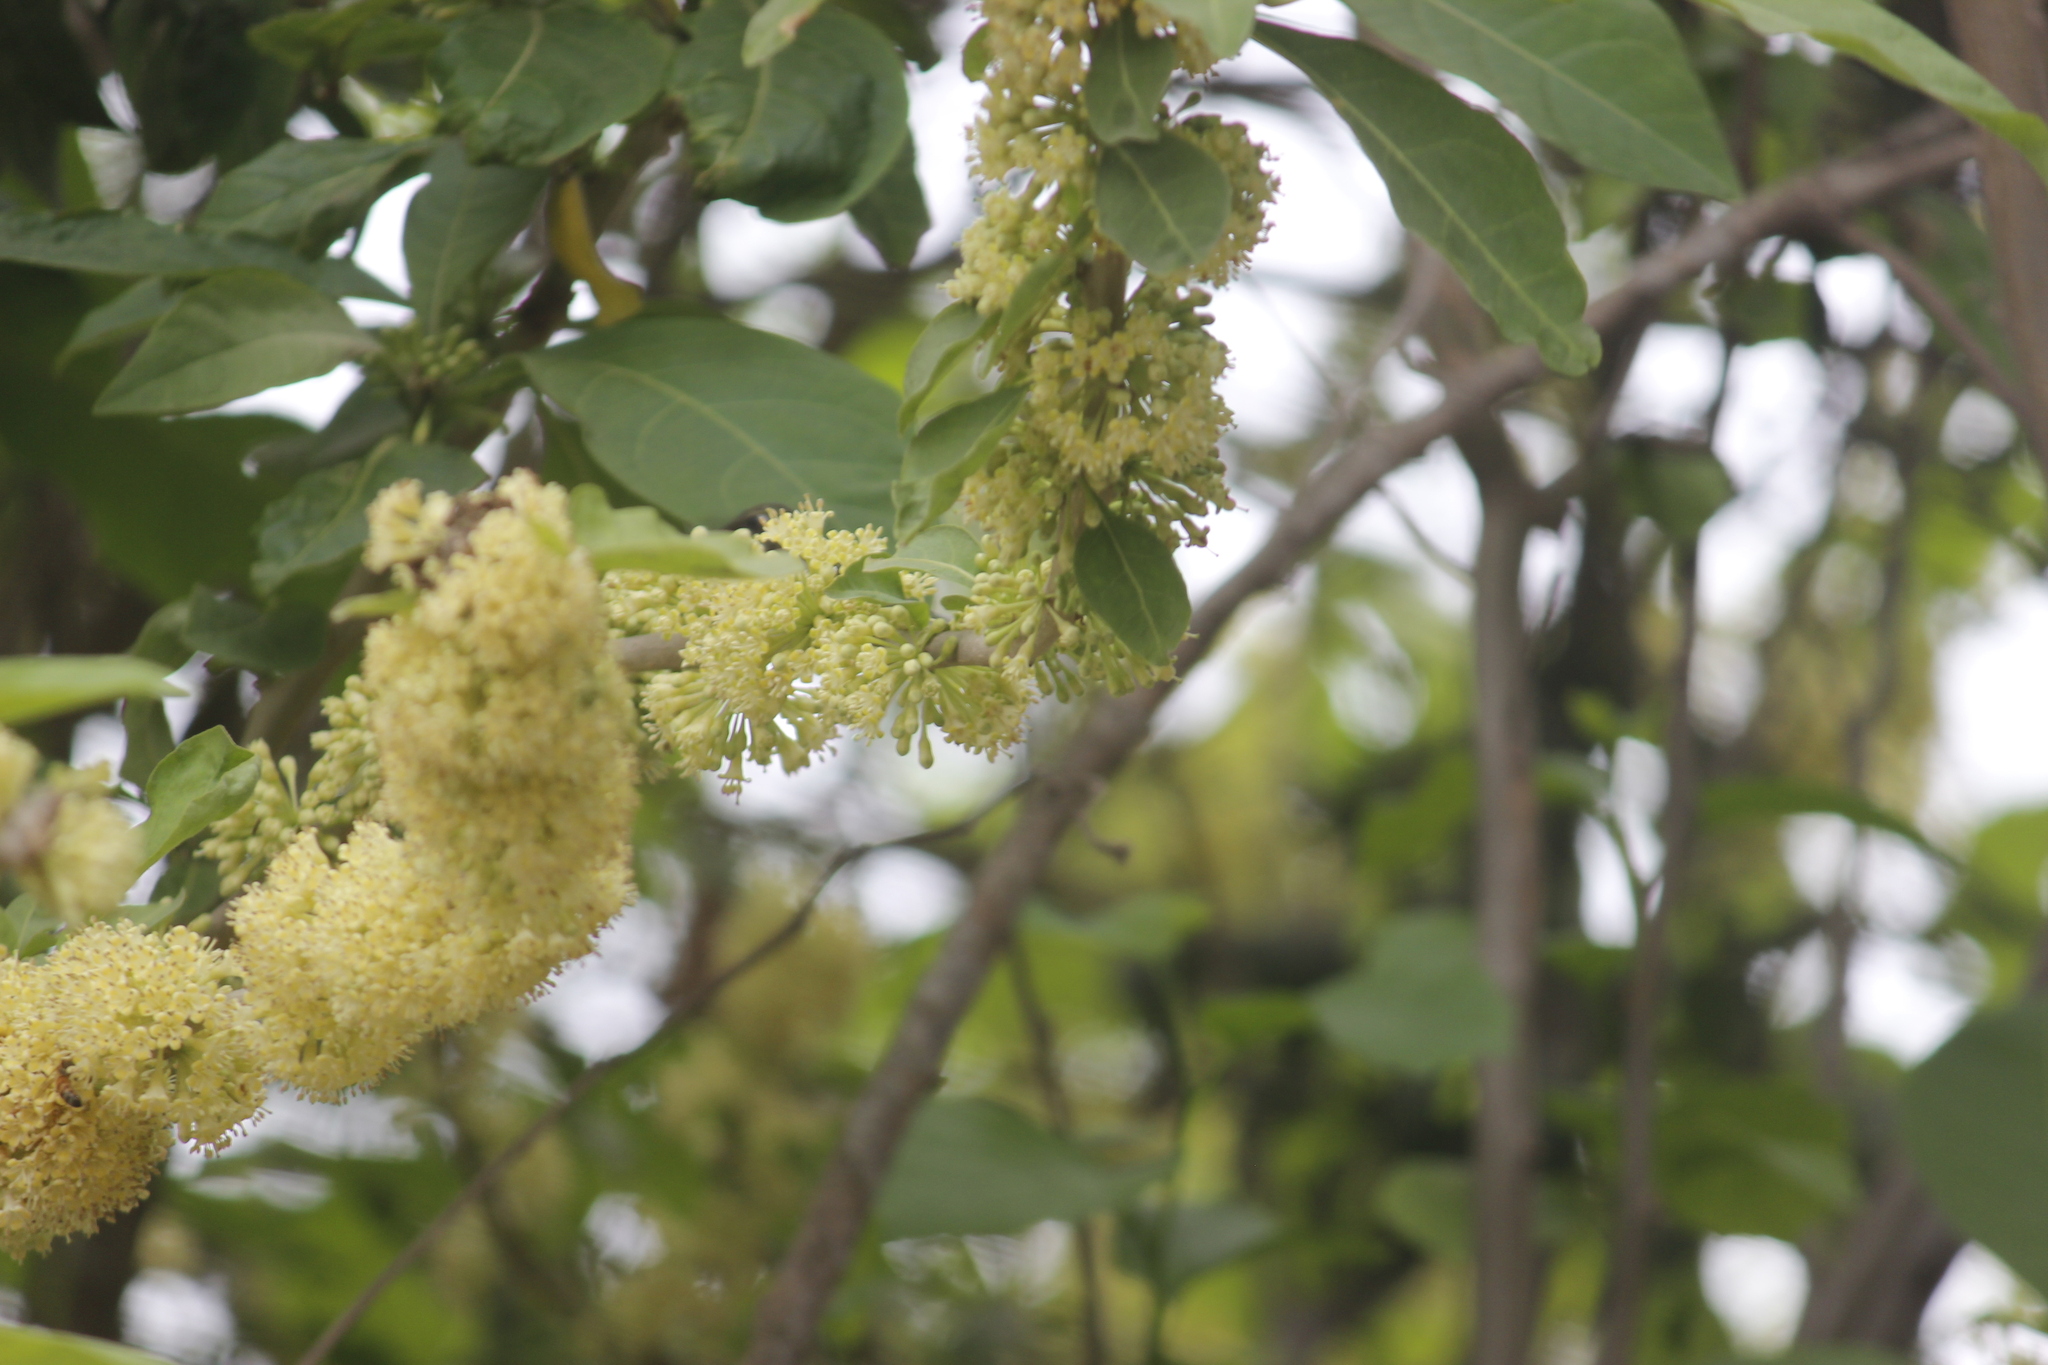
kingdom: Plantae
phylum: Tracheophyta
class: Magnoliopsida
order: Solanales
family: Solanaceae
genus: Iochroma
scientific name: Iochroma arborescens
